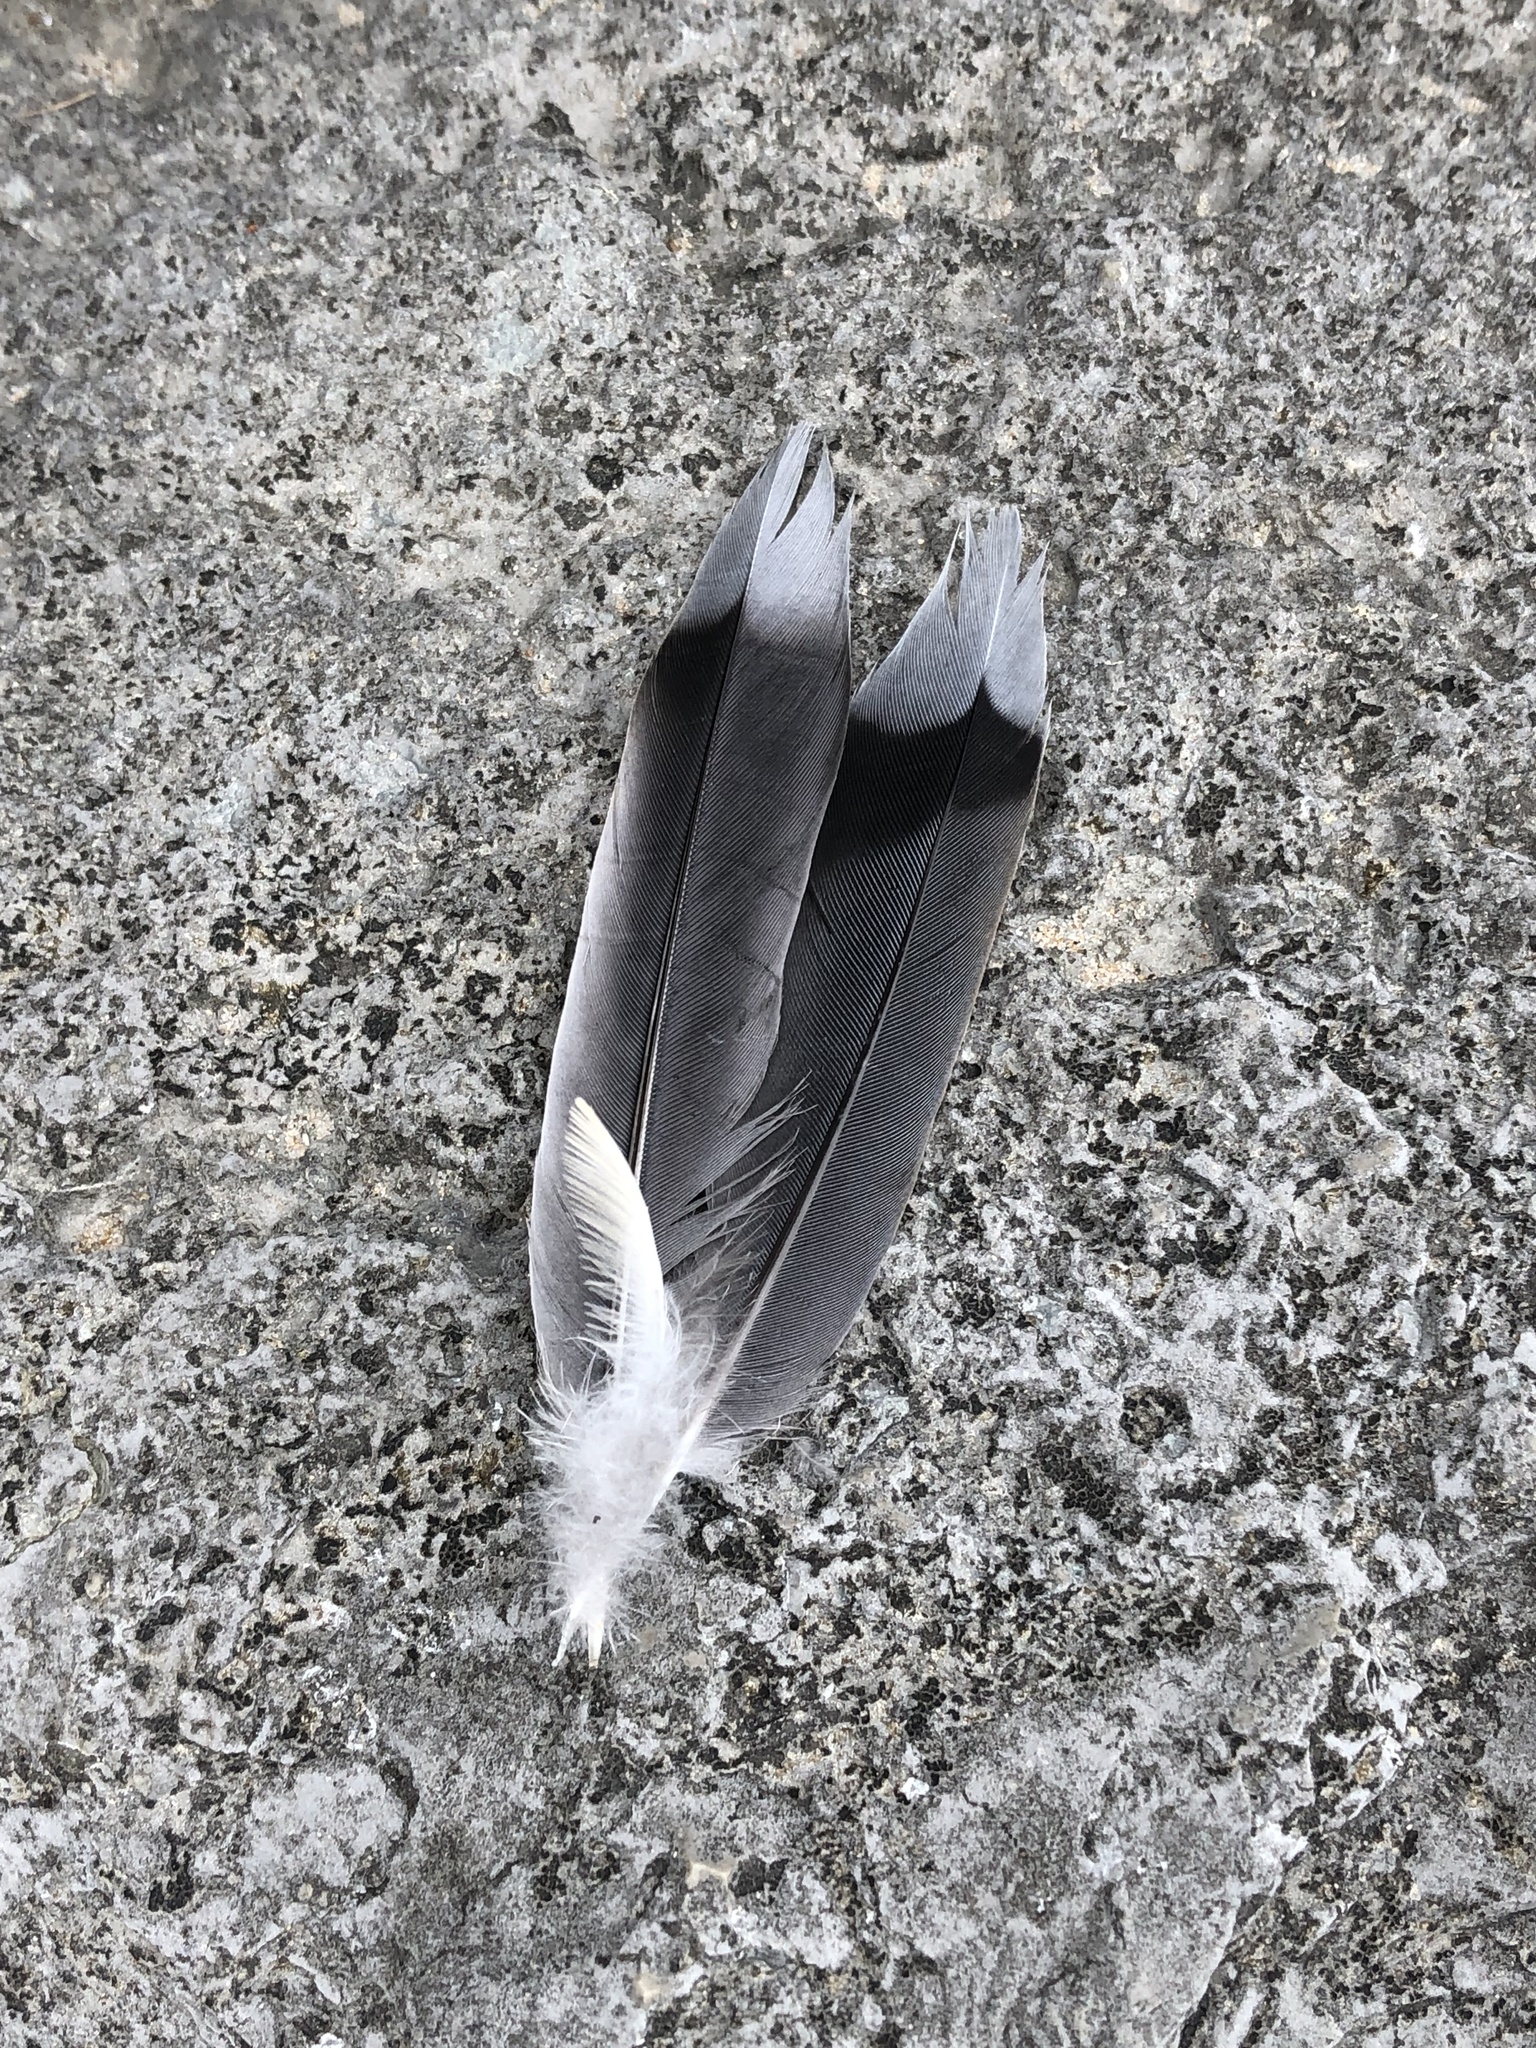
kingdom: Animalia
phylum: Chordata
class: Aves
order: Columbiformes
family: Columbidae
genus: Zenaida
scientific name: Zenaida macroura
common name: Mourning dove
